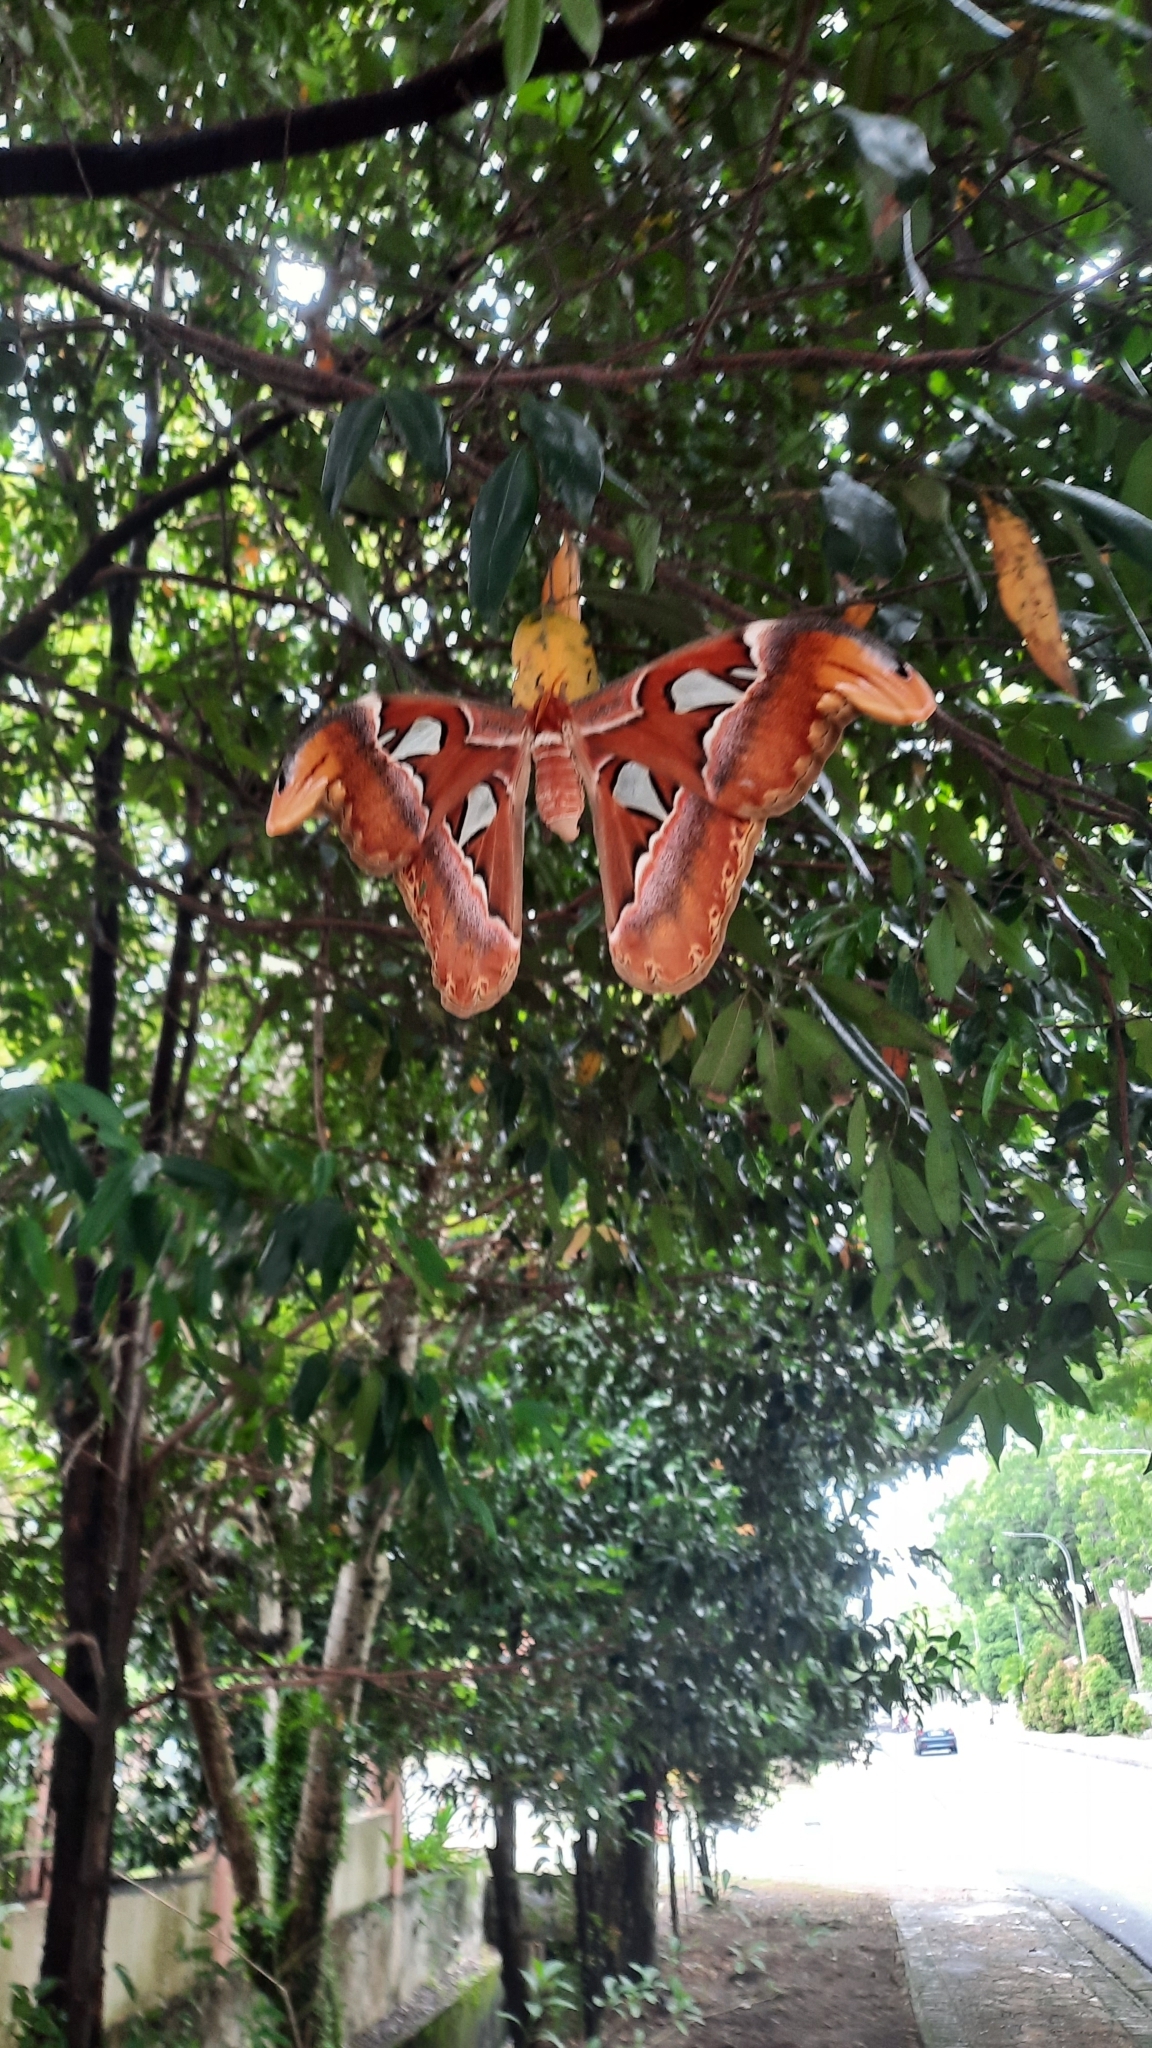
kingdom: Animalia
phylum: Arthropoda
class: Insecta
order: Lepidoptera
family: Saturniidae
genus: Attacus
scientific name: Attacus atlas
